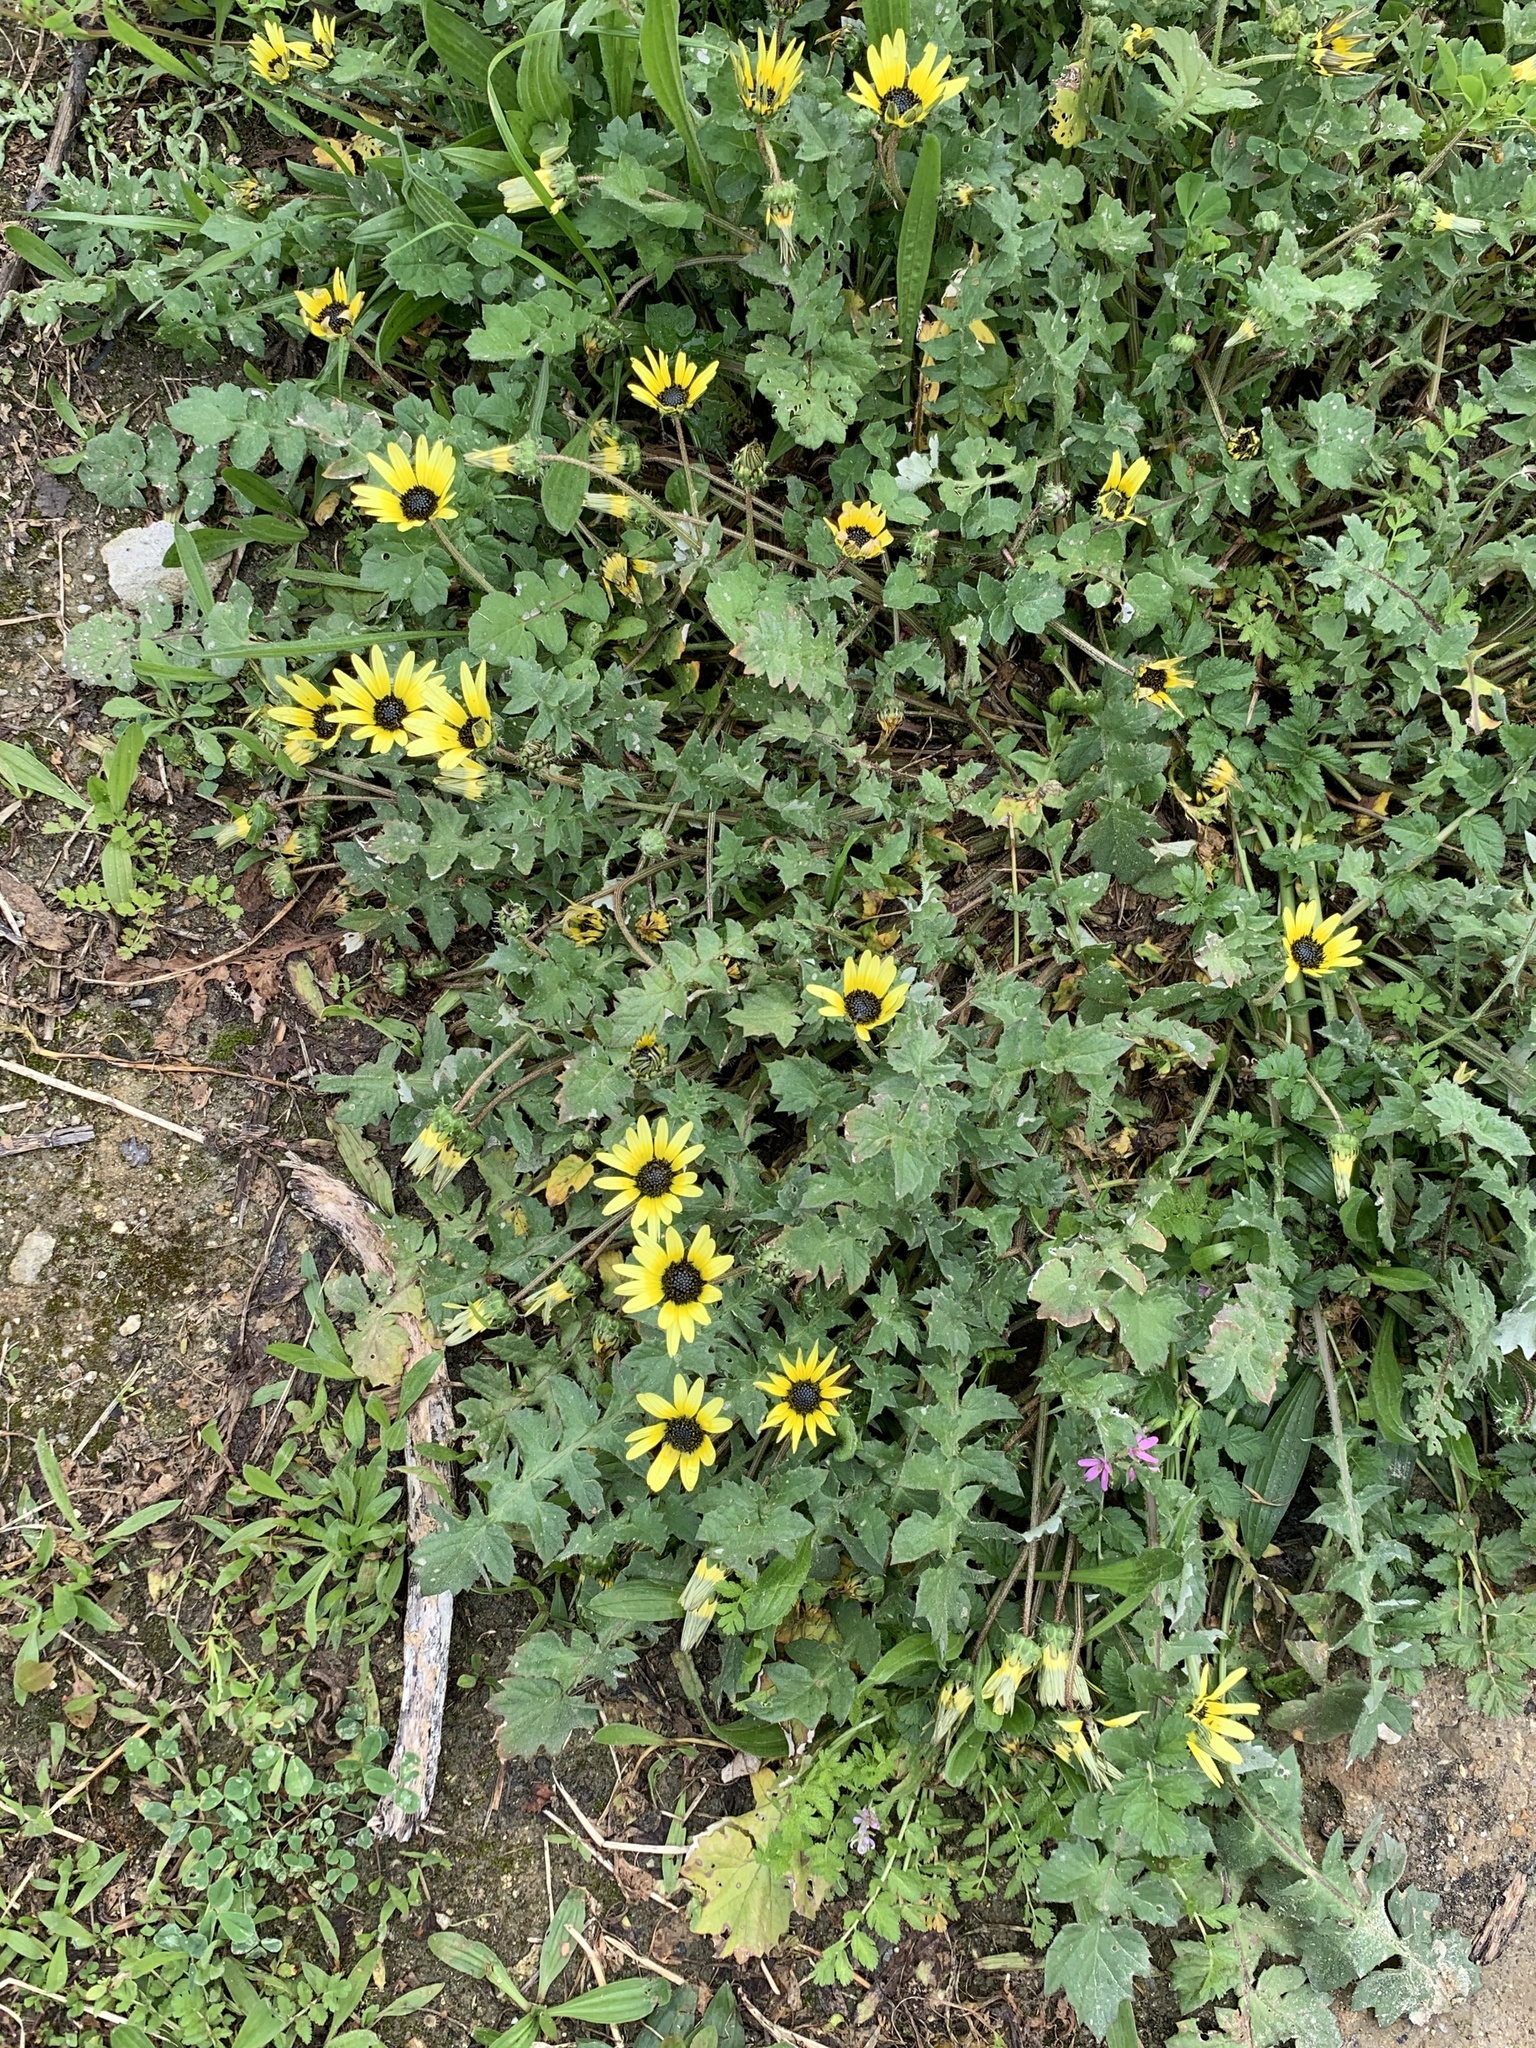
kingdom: Plantae
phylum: Tracheophyta
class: Magnoliopsida
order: Asterales
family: Asteraceae
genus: Arctotheca
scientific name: Arctotheca calendula
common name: Capeweed
